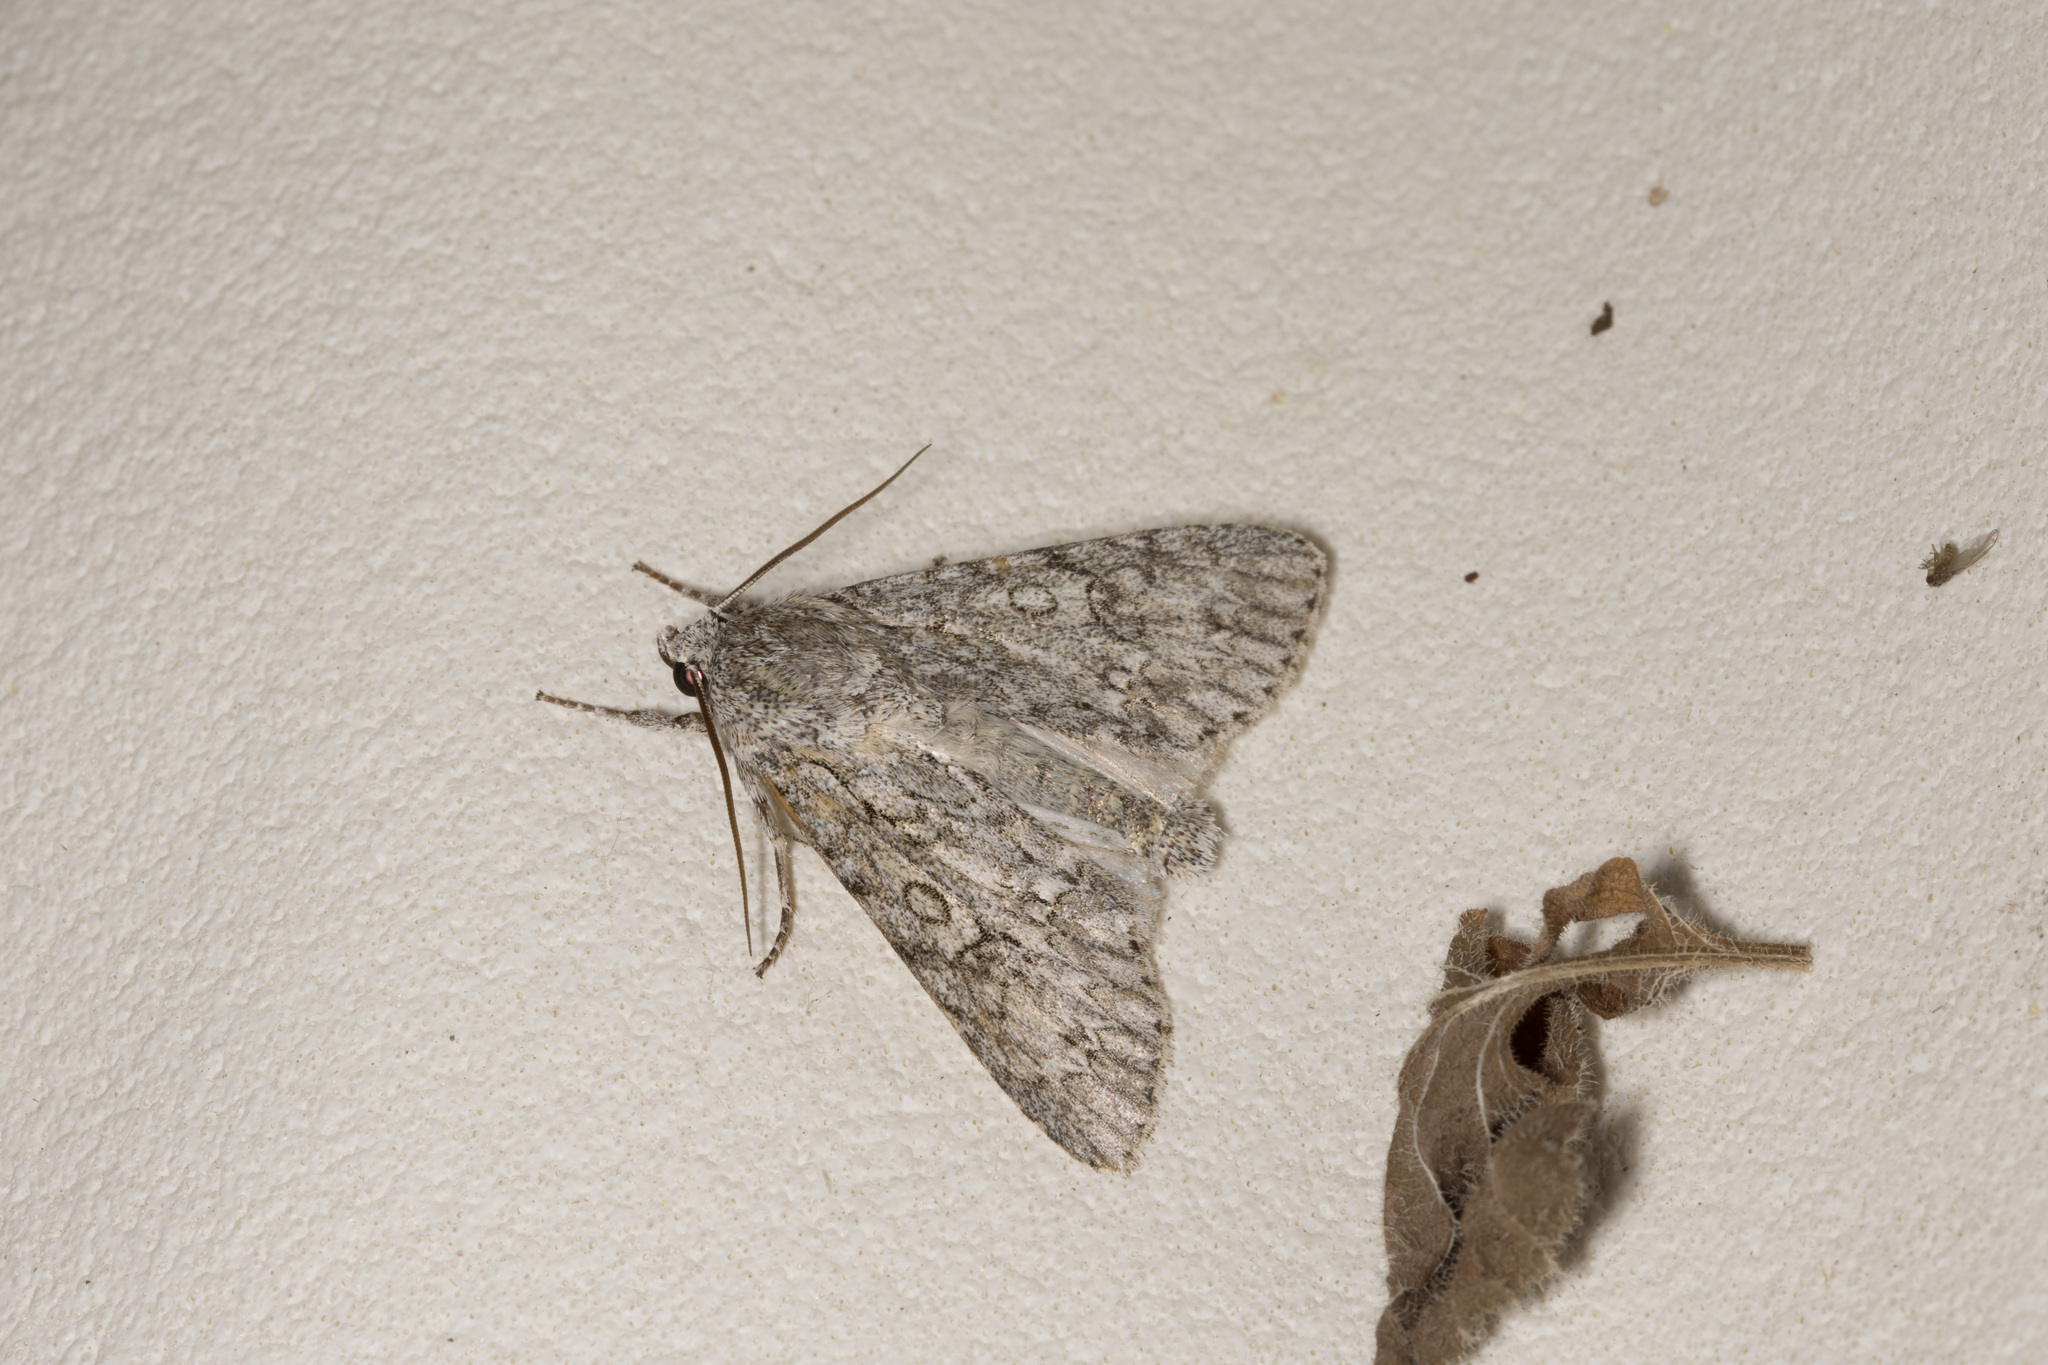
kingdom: Animalia
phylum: Arthropoda
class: Insecta
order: Lepidoptera
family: Noctuidae
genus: Acronicta
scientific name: Acronicta aceris
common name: Sycamore
